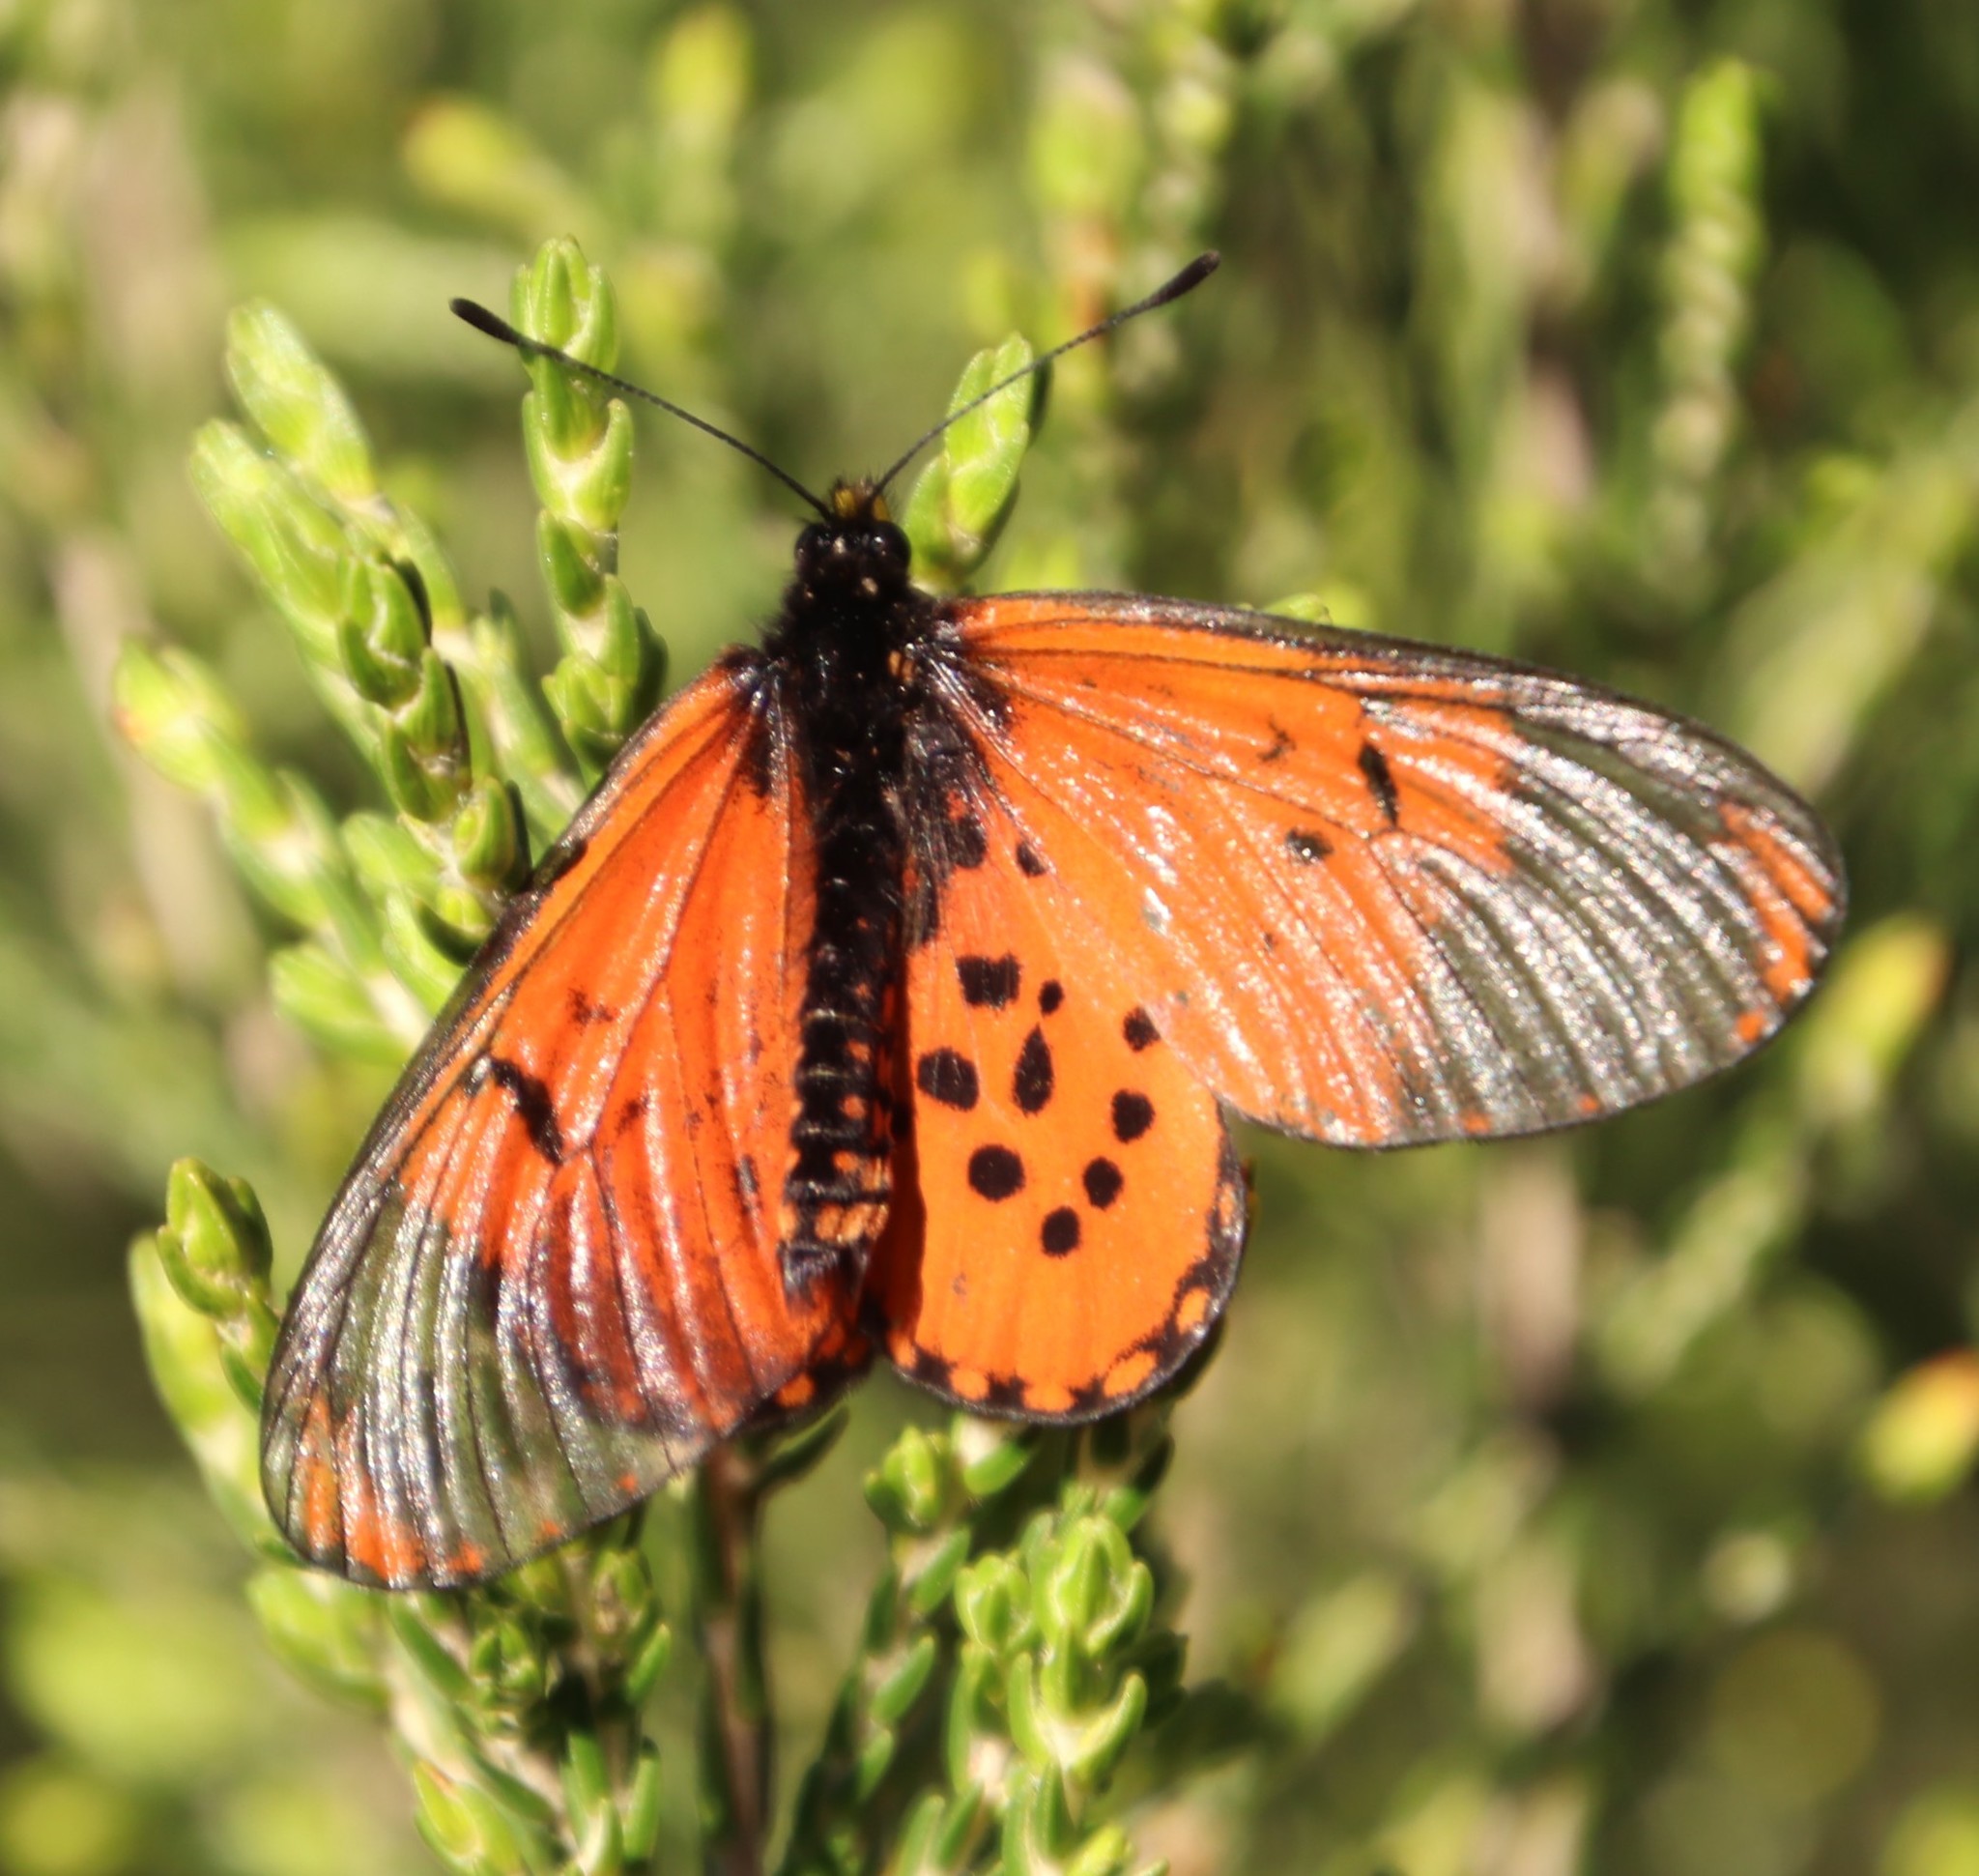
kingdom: Animalia
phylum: Arthropoda
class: Insecta
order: Lepidoptera
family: Nymphalidae
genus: Acraea
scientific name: Acraea horta
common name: Garden acraea
